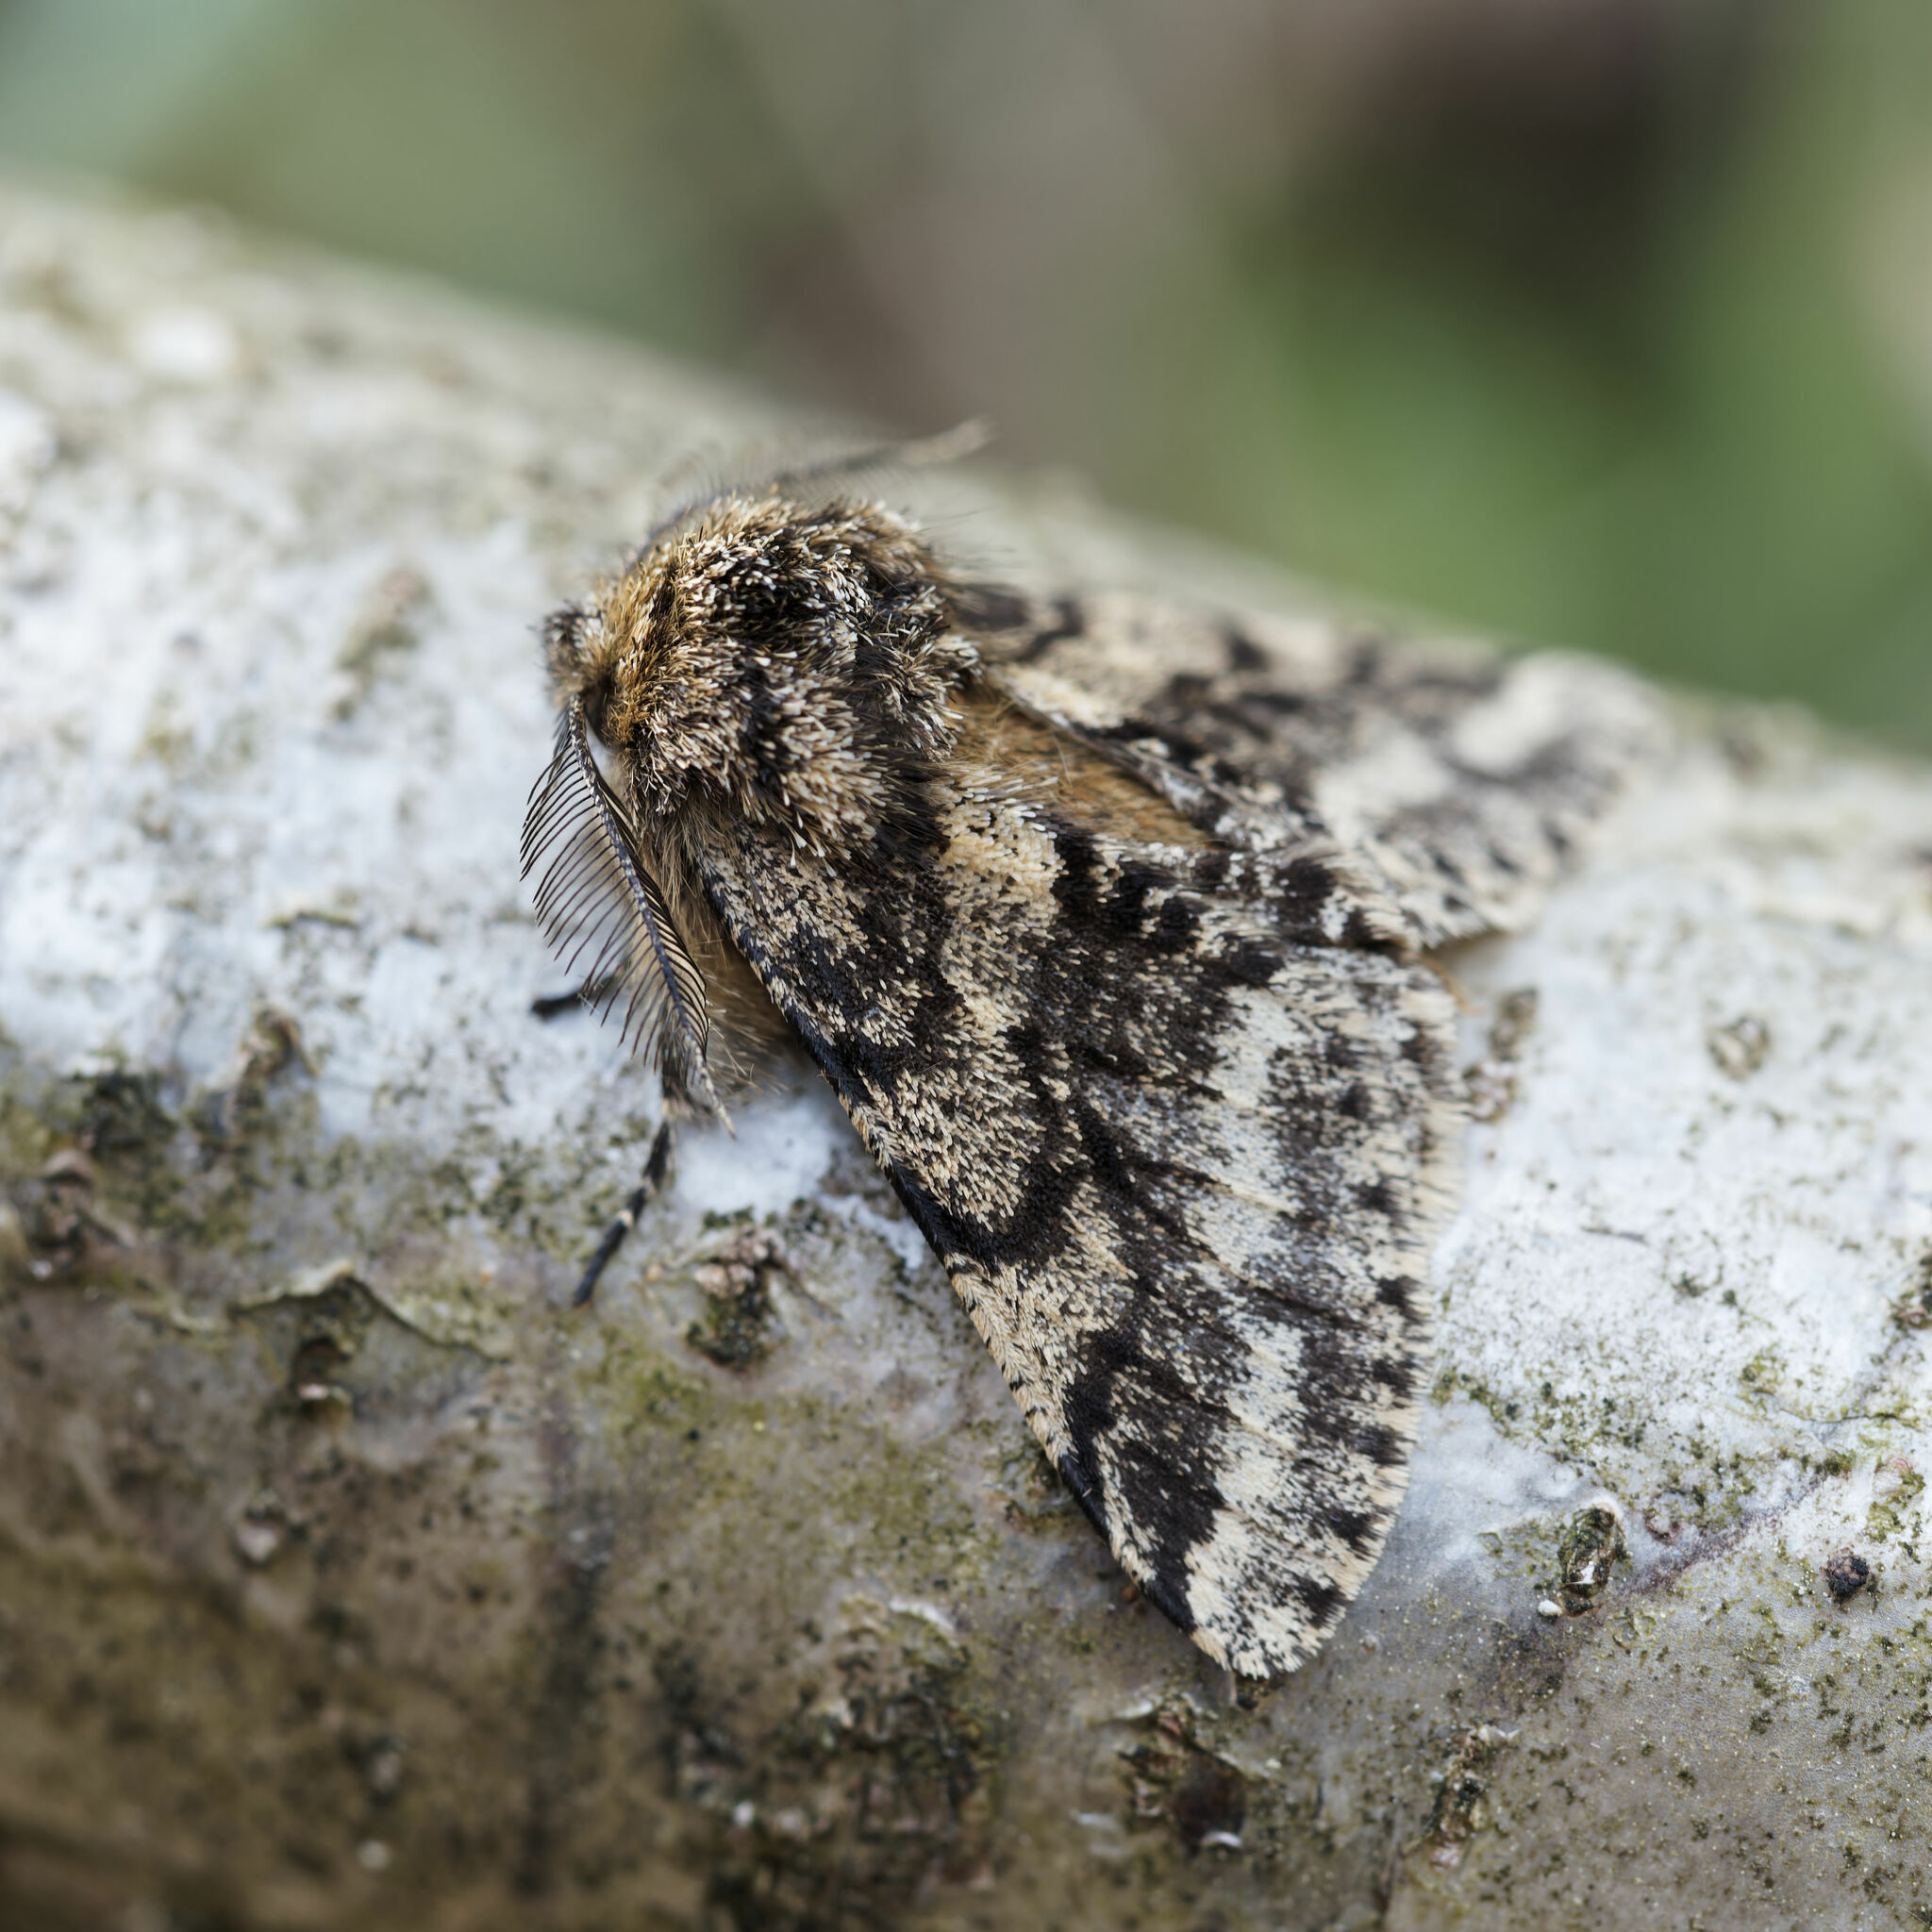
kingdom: Animalia
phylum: Arthropoda
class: Insecta
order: Lepidoptera
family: Geometridae
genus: Lycia
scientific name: Lycia hirtaria
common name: Brindled beauty
